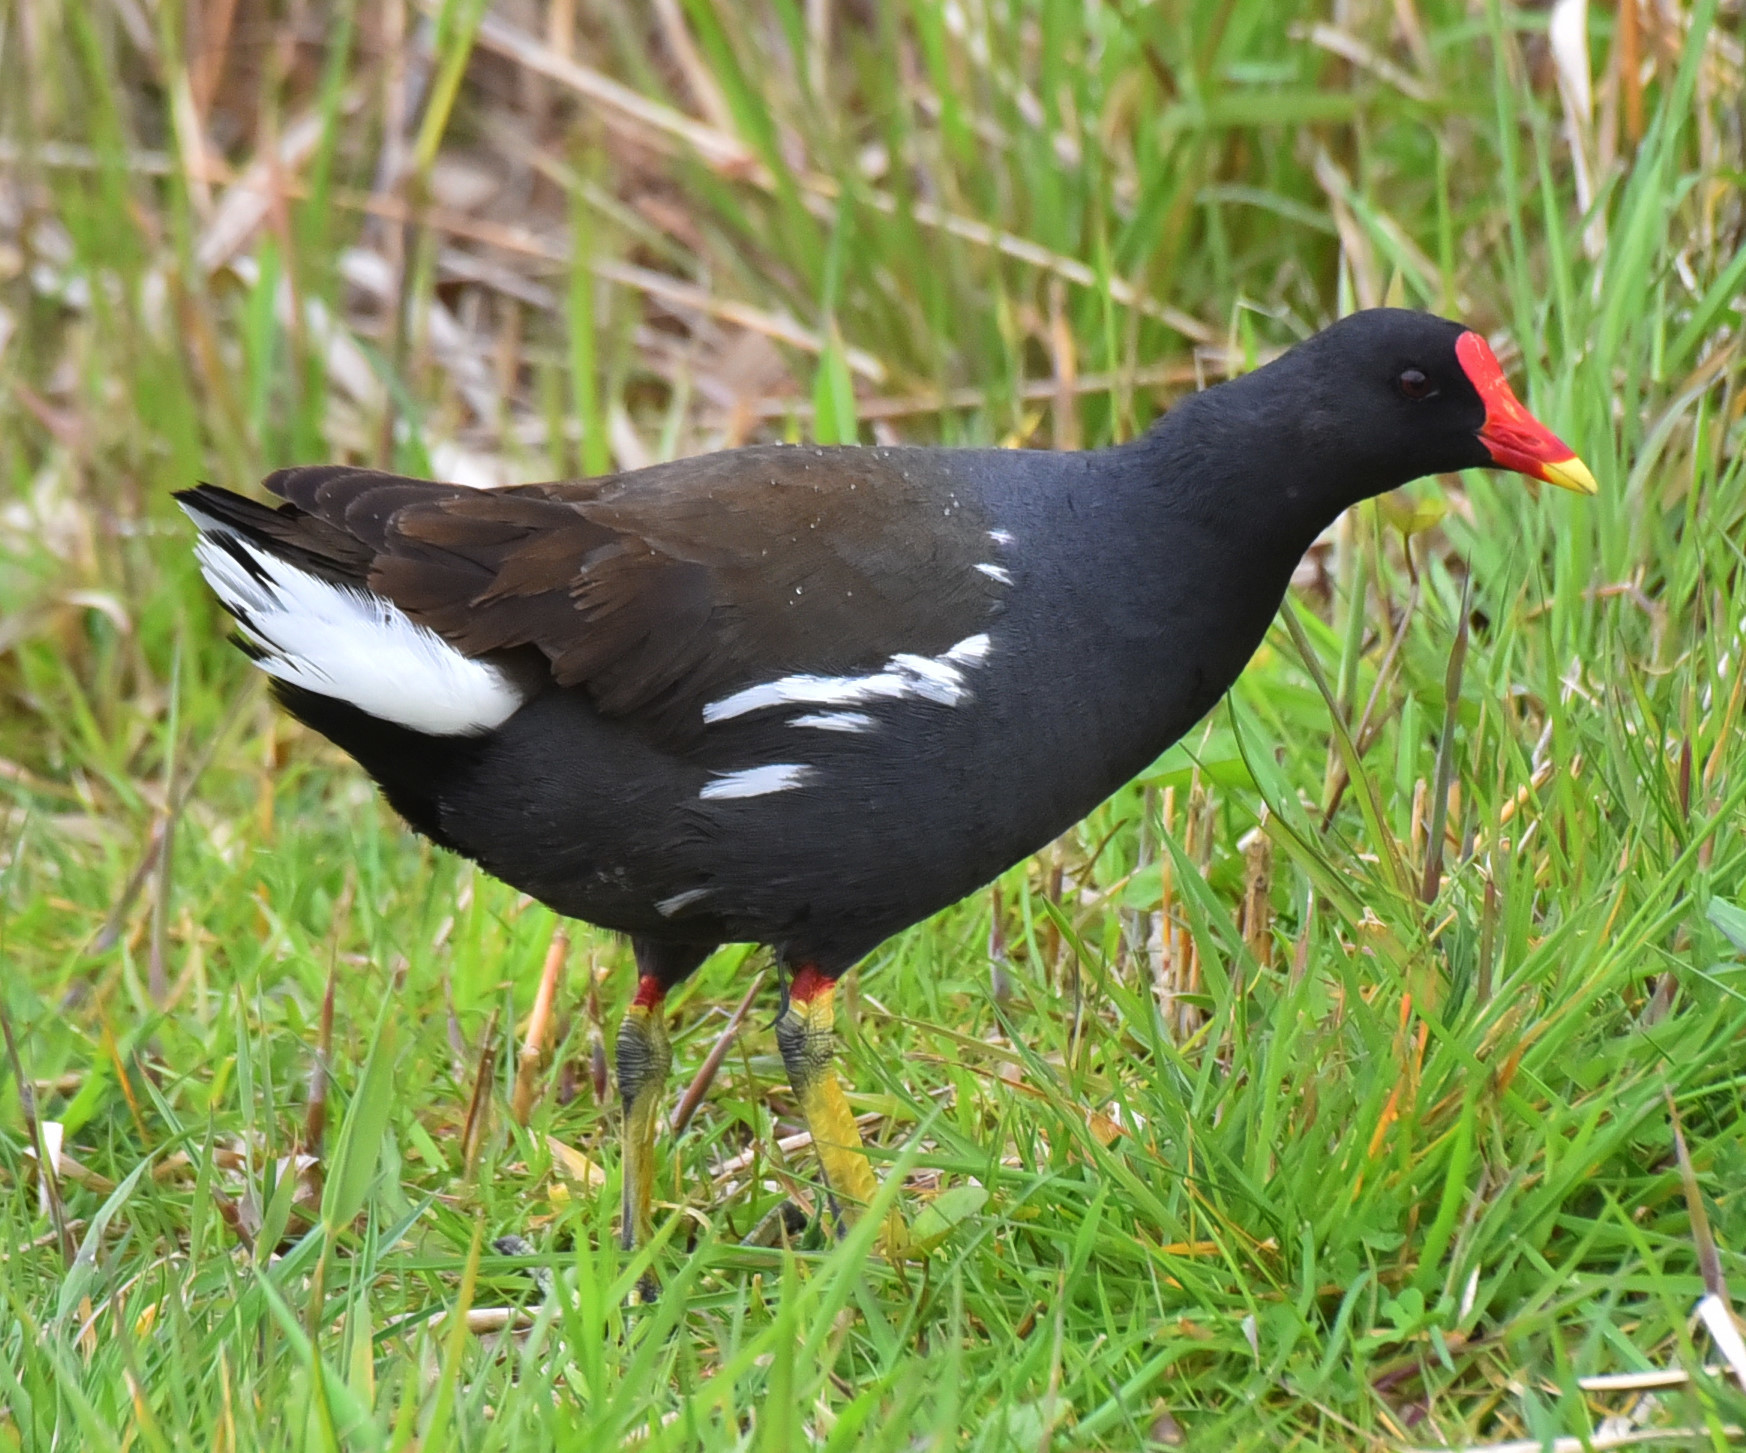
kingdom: Animalia
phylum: Chordata
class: Aves
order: Gruiformes
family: Rallidae
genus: Gallinula
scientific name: Gallinula chloropus
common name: Common moorhen
